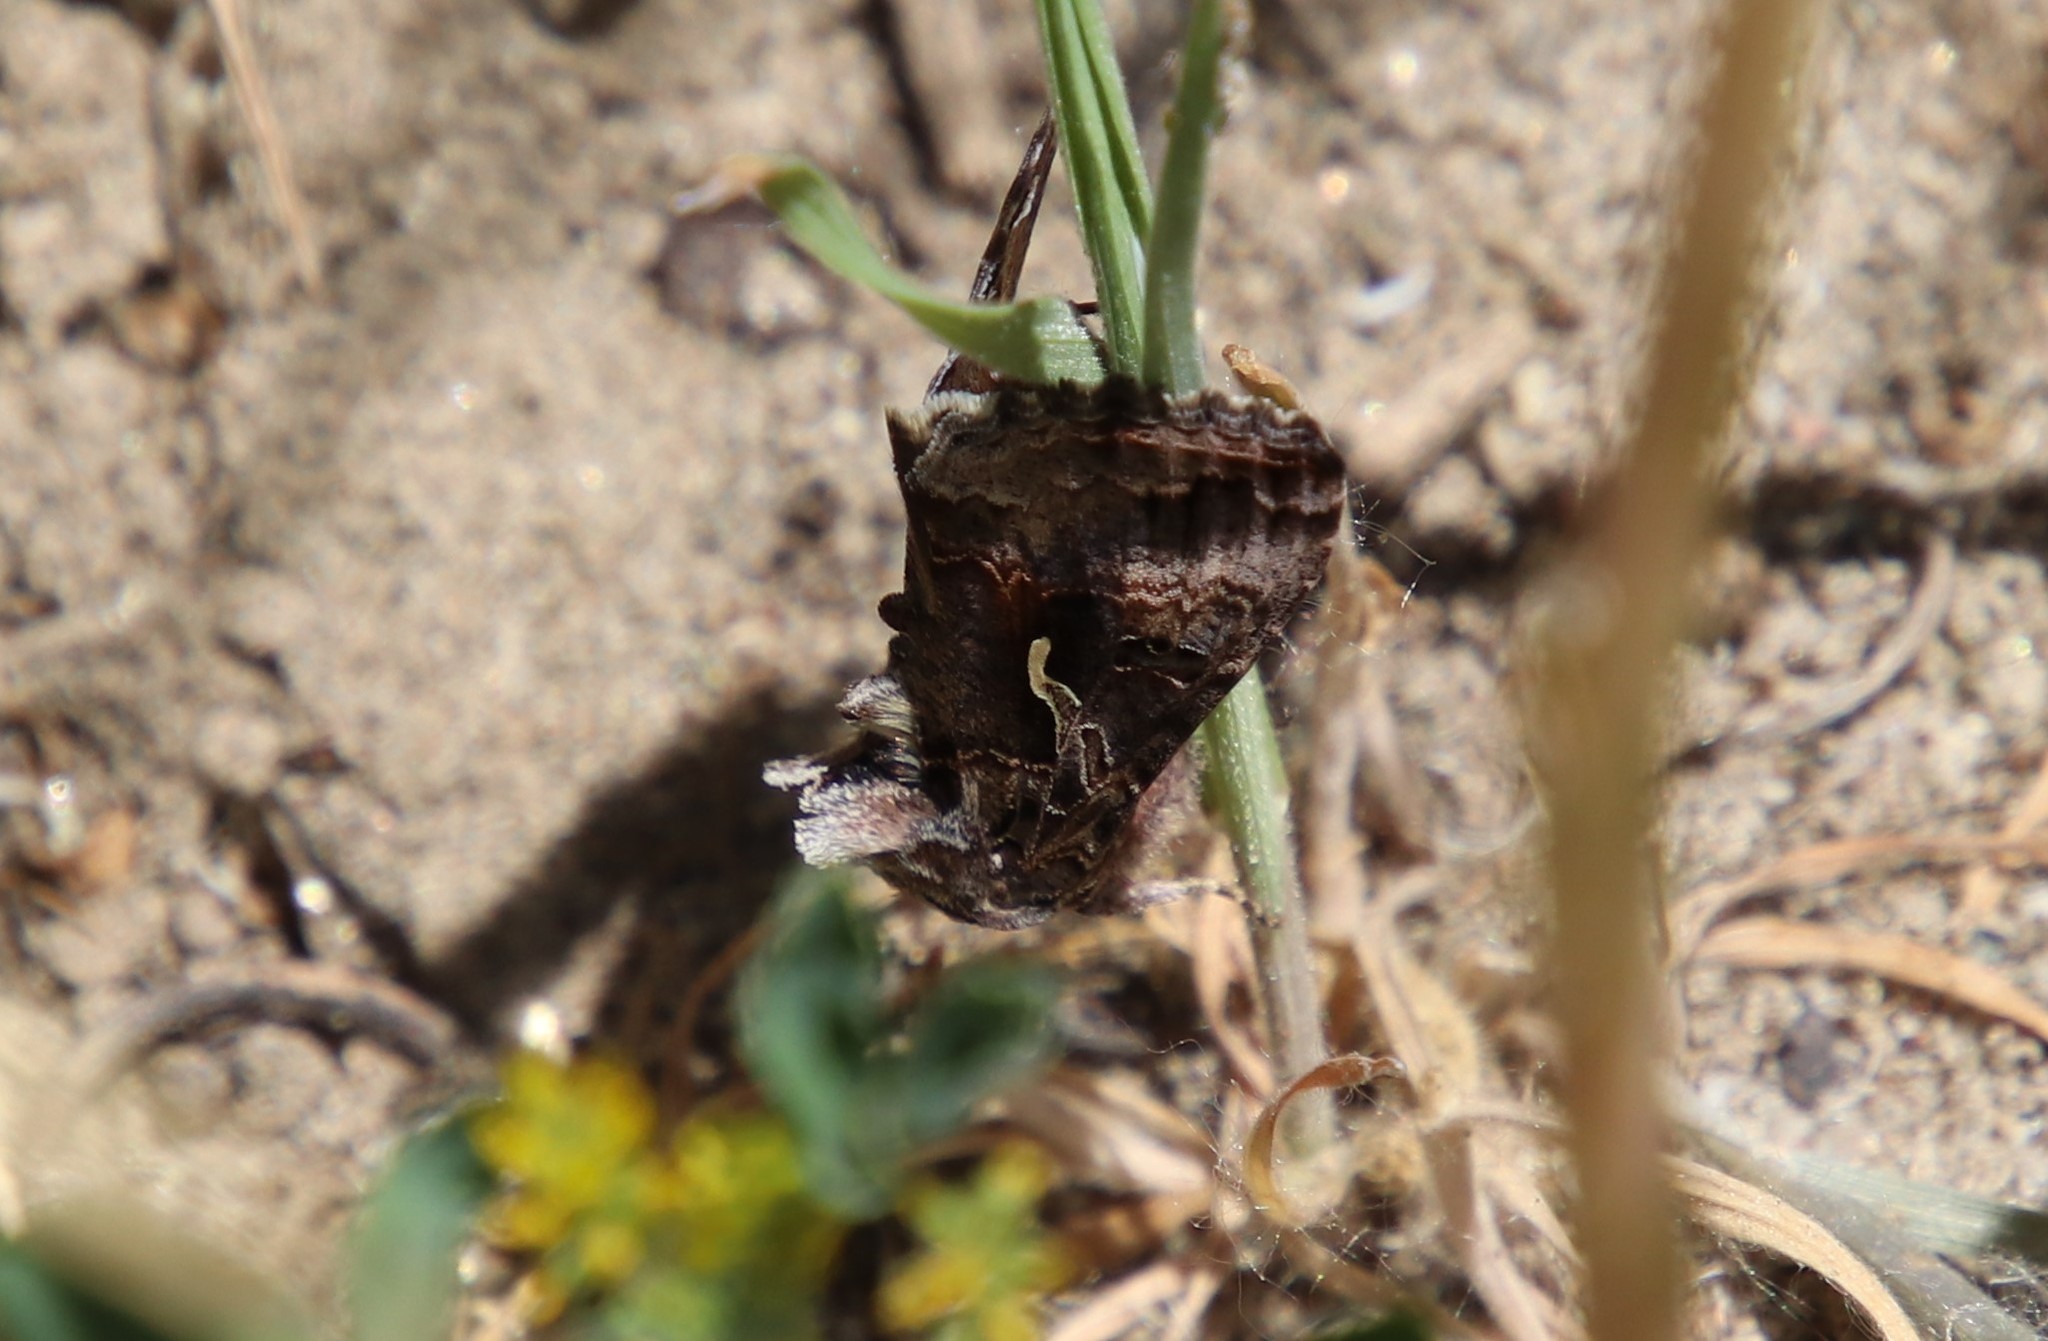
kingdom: Animalia
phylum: Arthropoda
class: Insecta
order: Lepidoptera
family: Noctuidae
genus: Autographa
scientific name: Autographa californica
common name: Alfalfa looper
